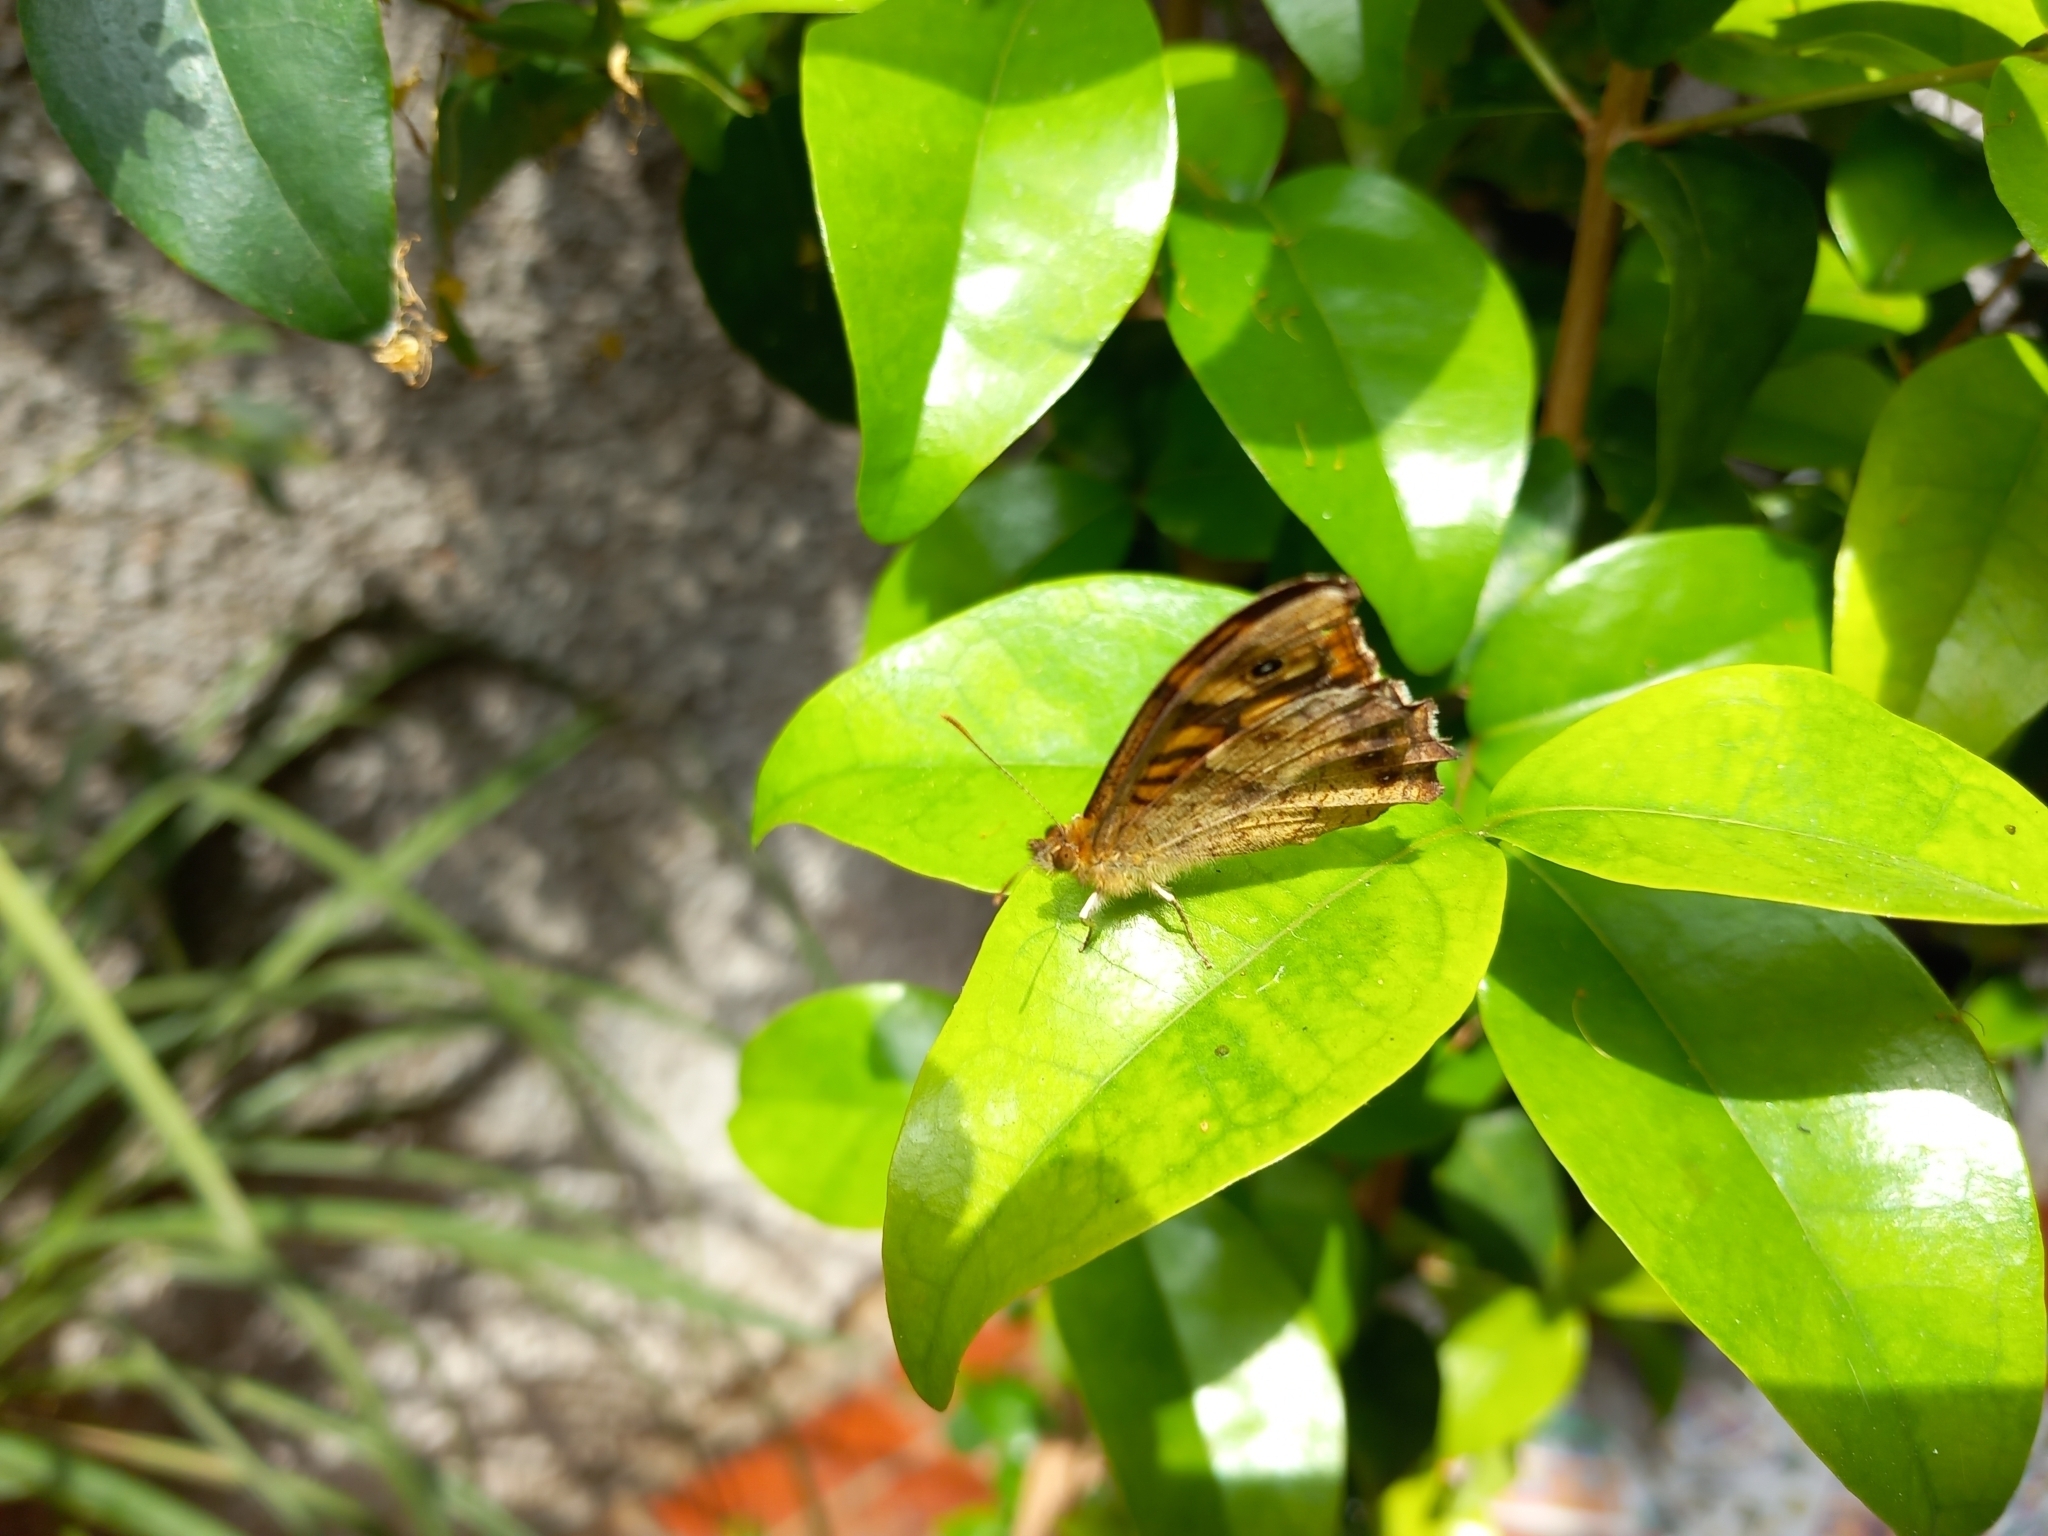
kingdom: Animalia
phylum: Arthropoda
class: Insecta
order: Lepidoptera
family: Nymphalidae
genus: Pararge
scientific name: Pararge aegeria
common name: Speckled wood
